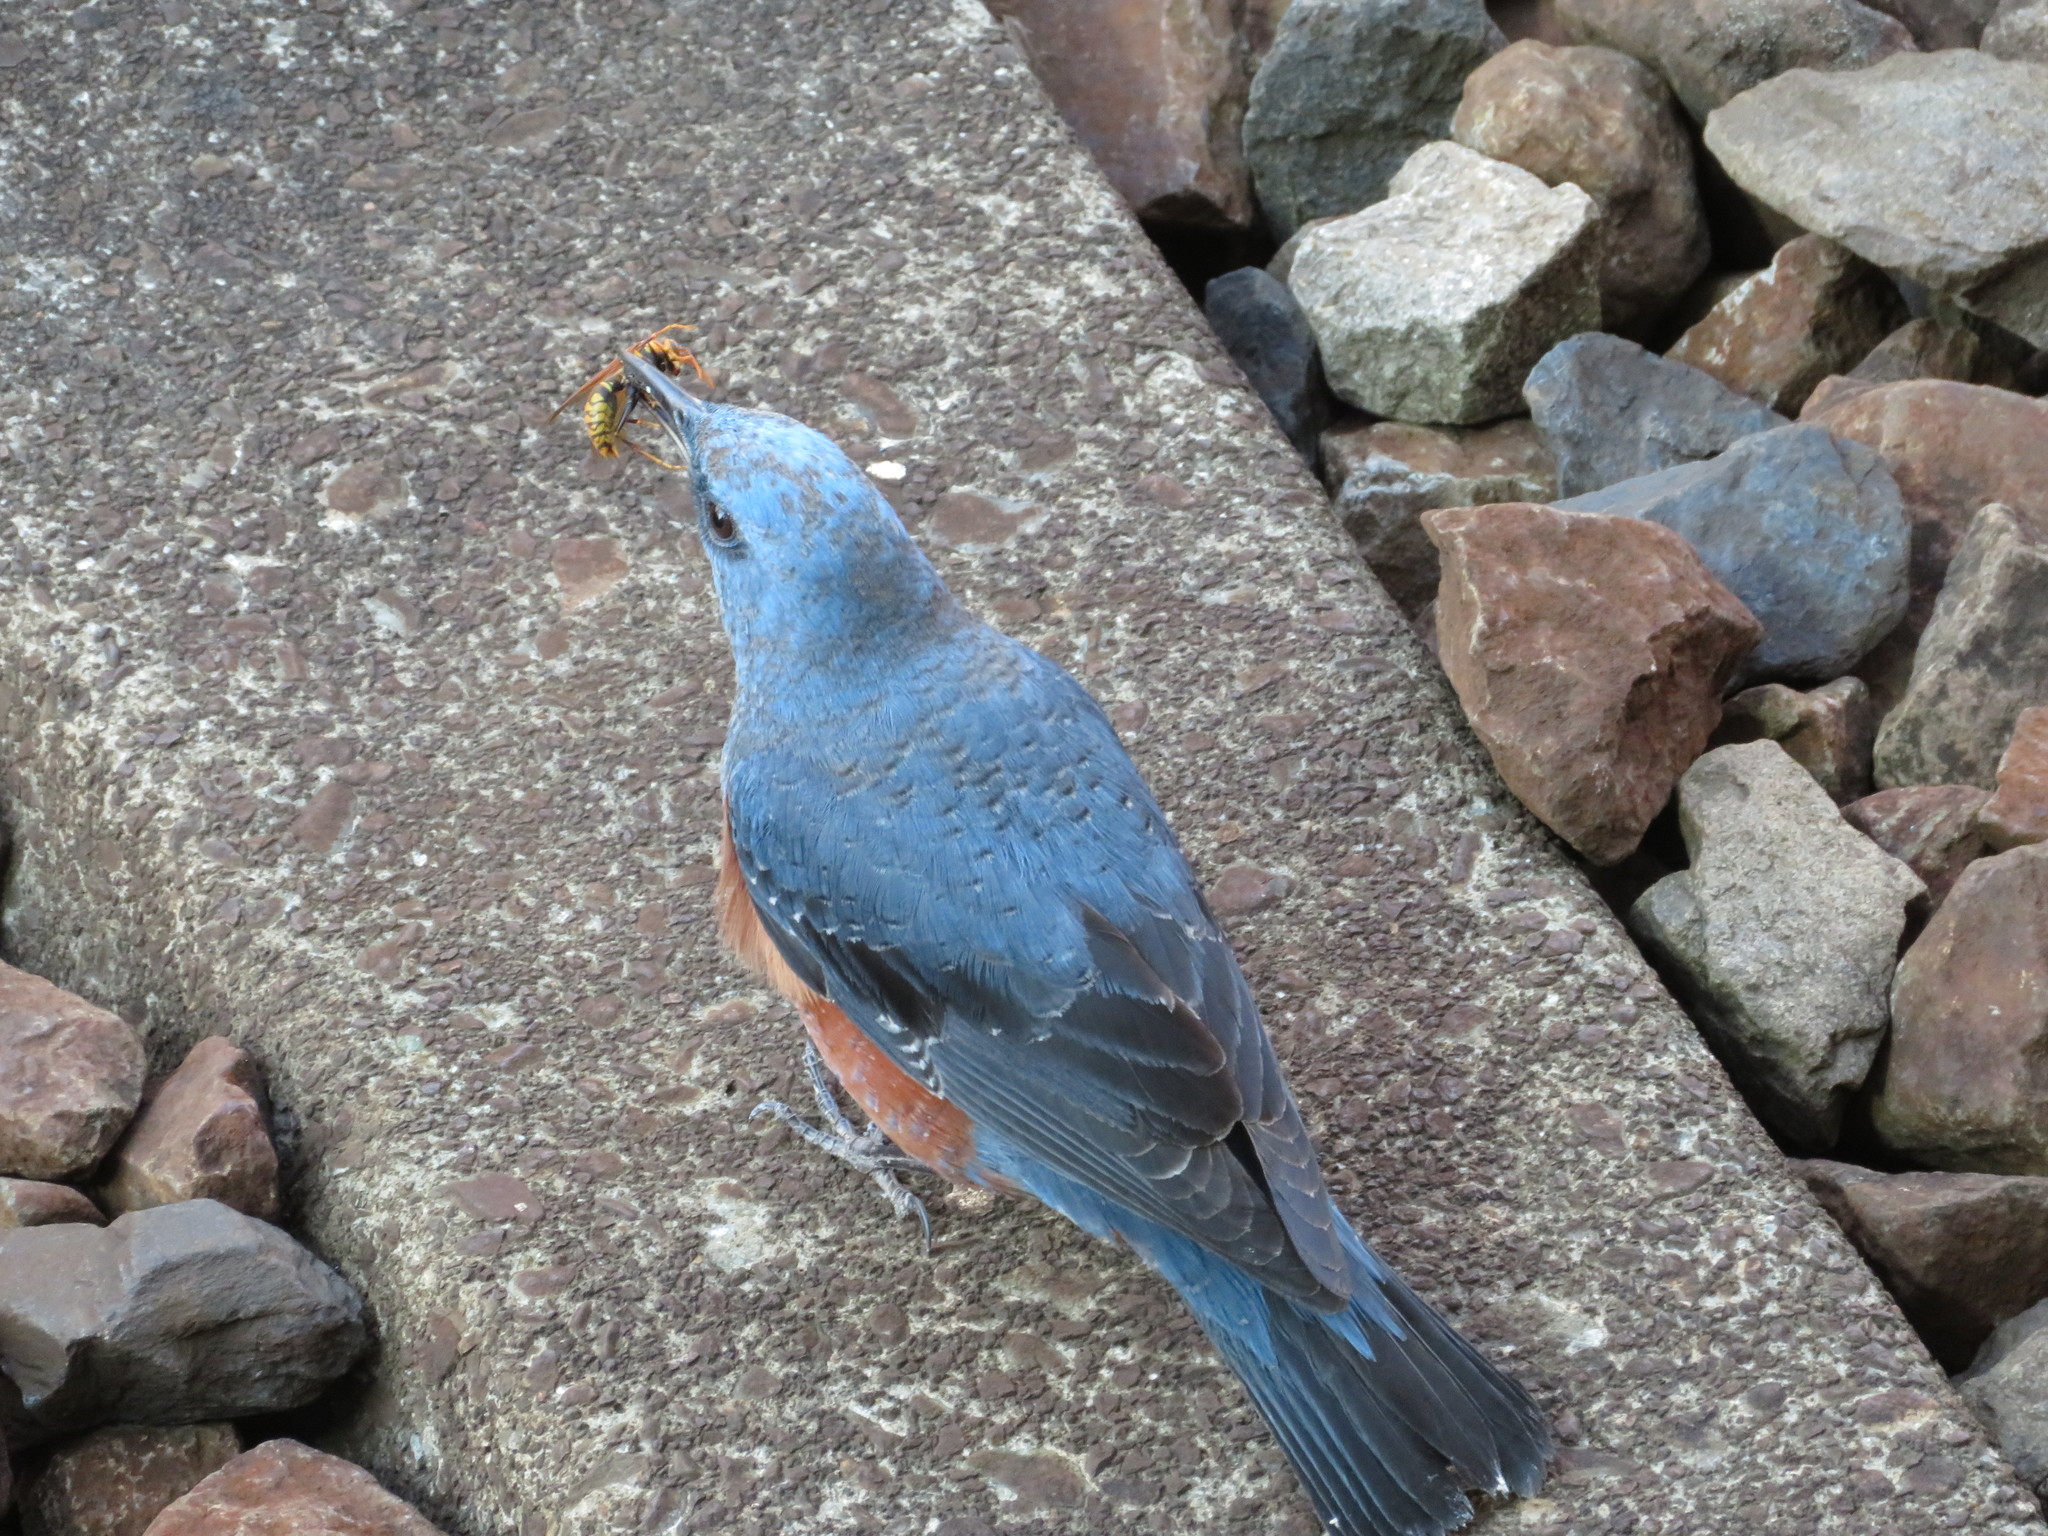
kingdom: Animalia
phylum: Chordata
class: Aves
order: Passeriformes
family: Muscicapidae
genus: Monticola
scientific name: Monticola solitarius
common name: Blue rock thrush
